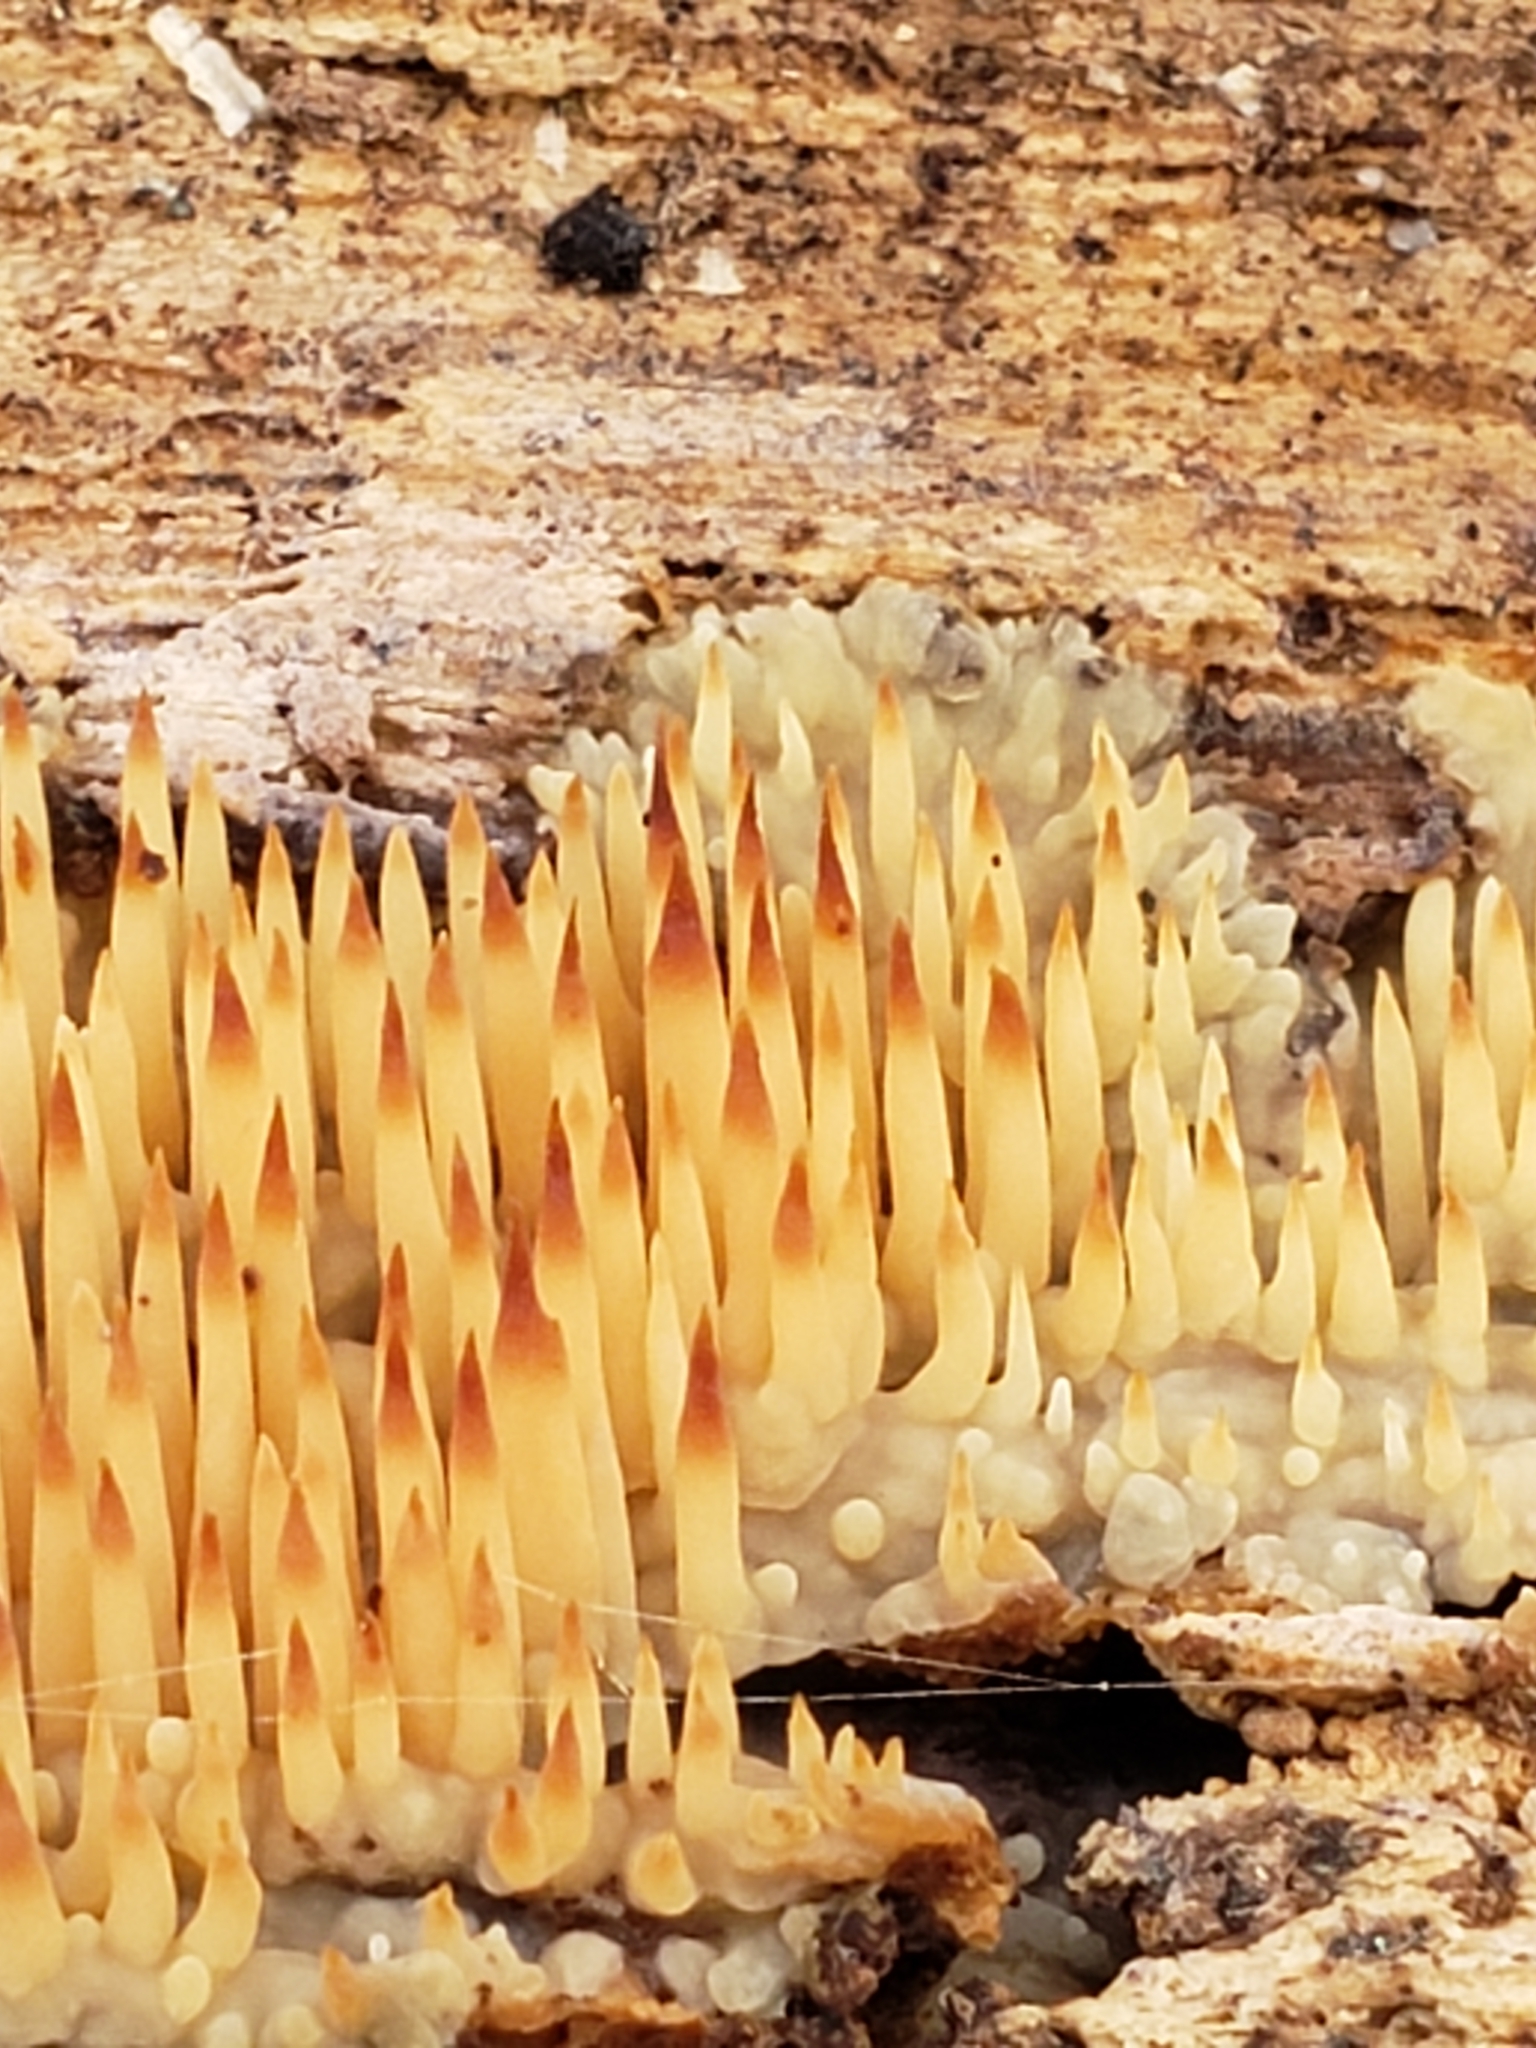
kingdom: Fungi
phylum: Basidiomycota
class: Agaricomycetes
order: Agaricales
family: Radulomycetaceae
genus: Radulomyces
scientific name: Radulomyces copelandii
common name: Asian beauty
